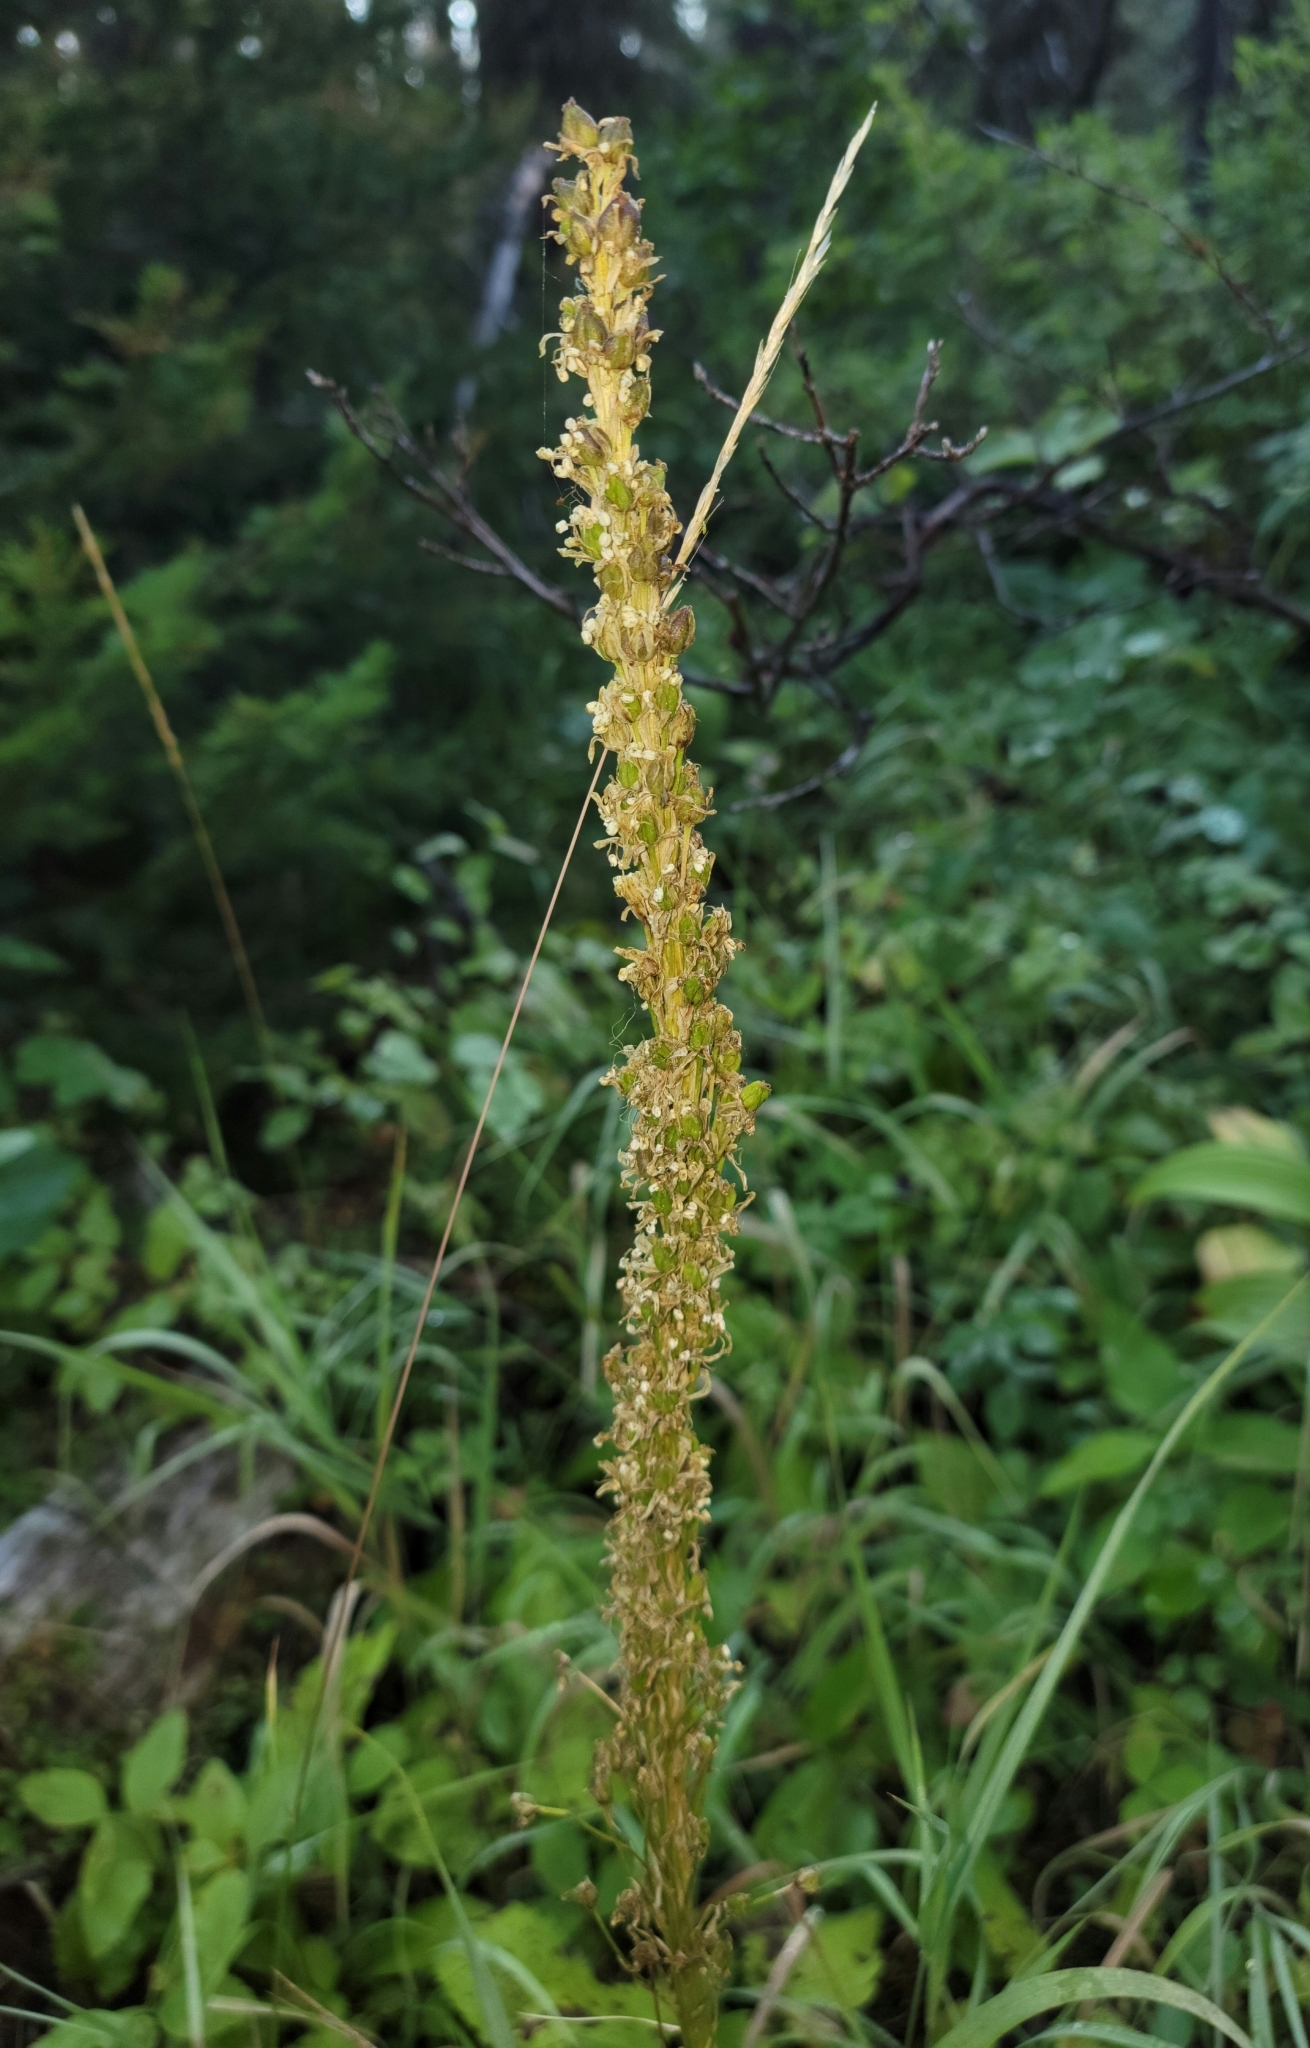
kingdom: Plantae
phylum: Tracheophyta
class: Liliopsida
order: Liliales
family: Melanthiaceae
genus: Xerophyllum
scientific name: Xerophyllum tenax
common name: Bear-grass
